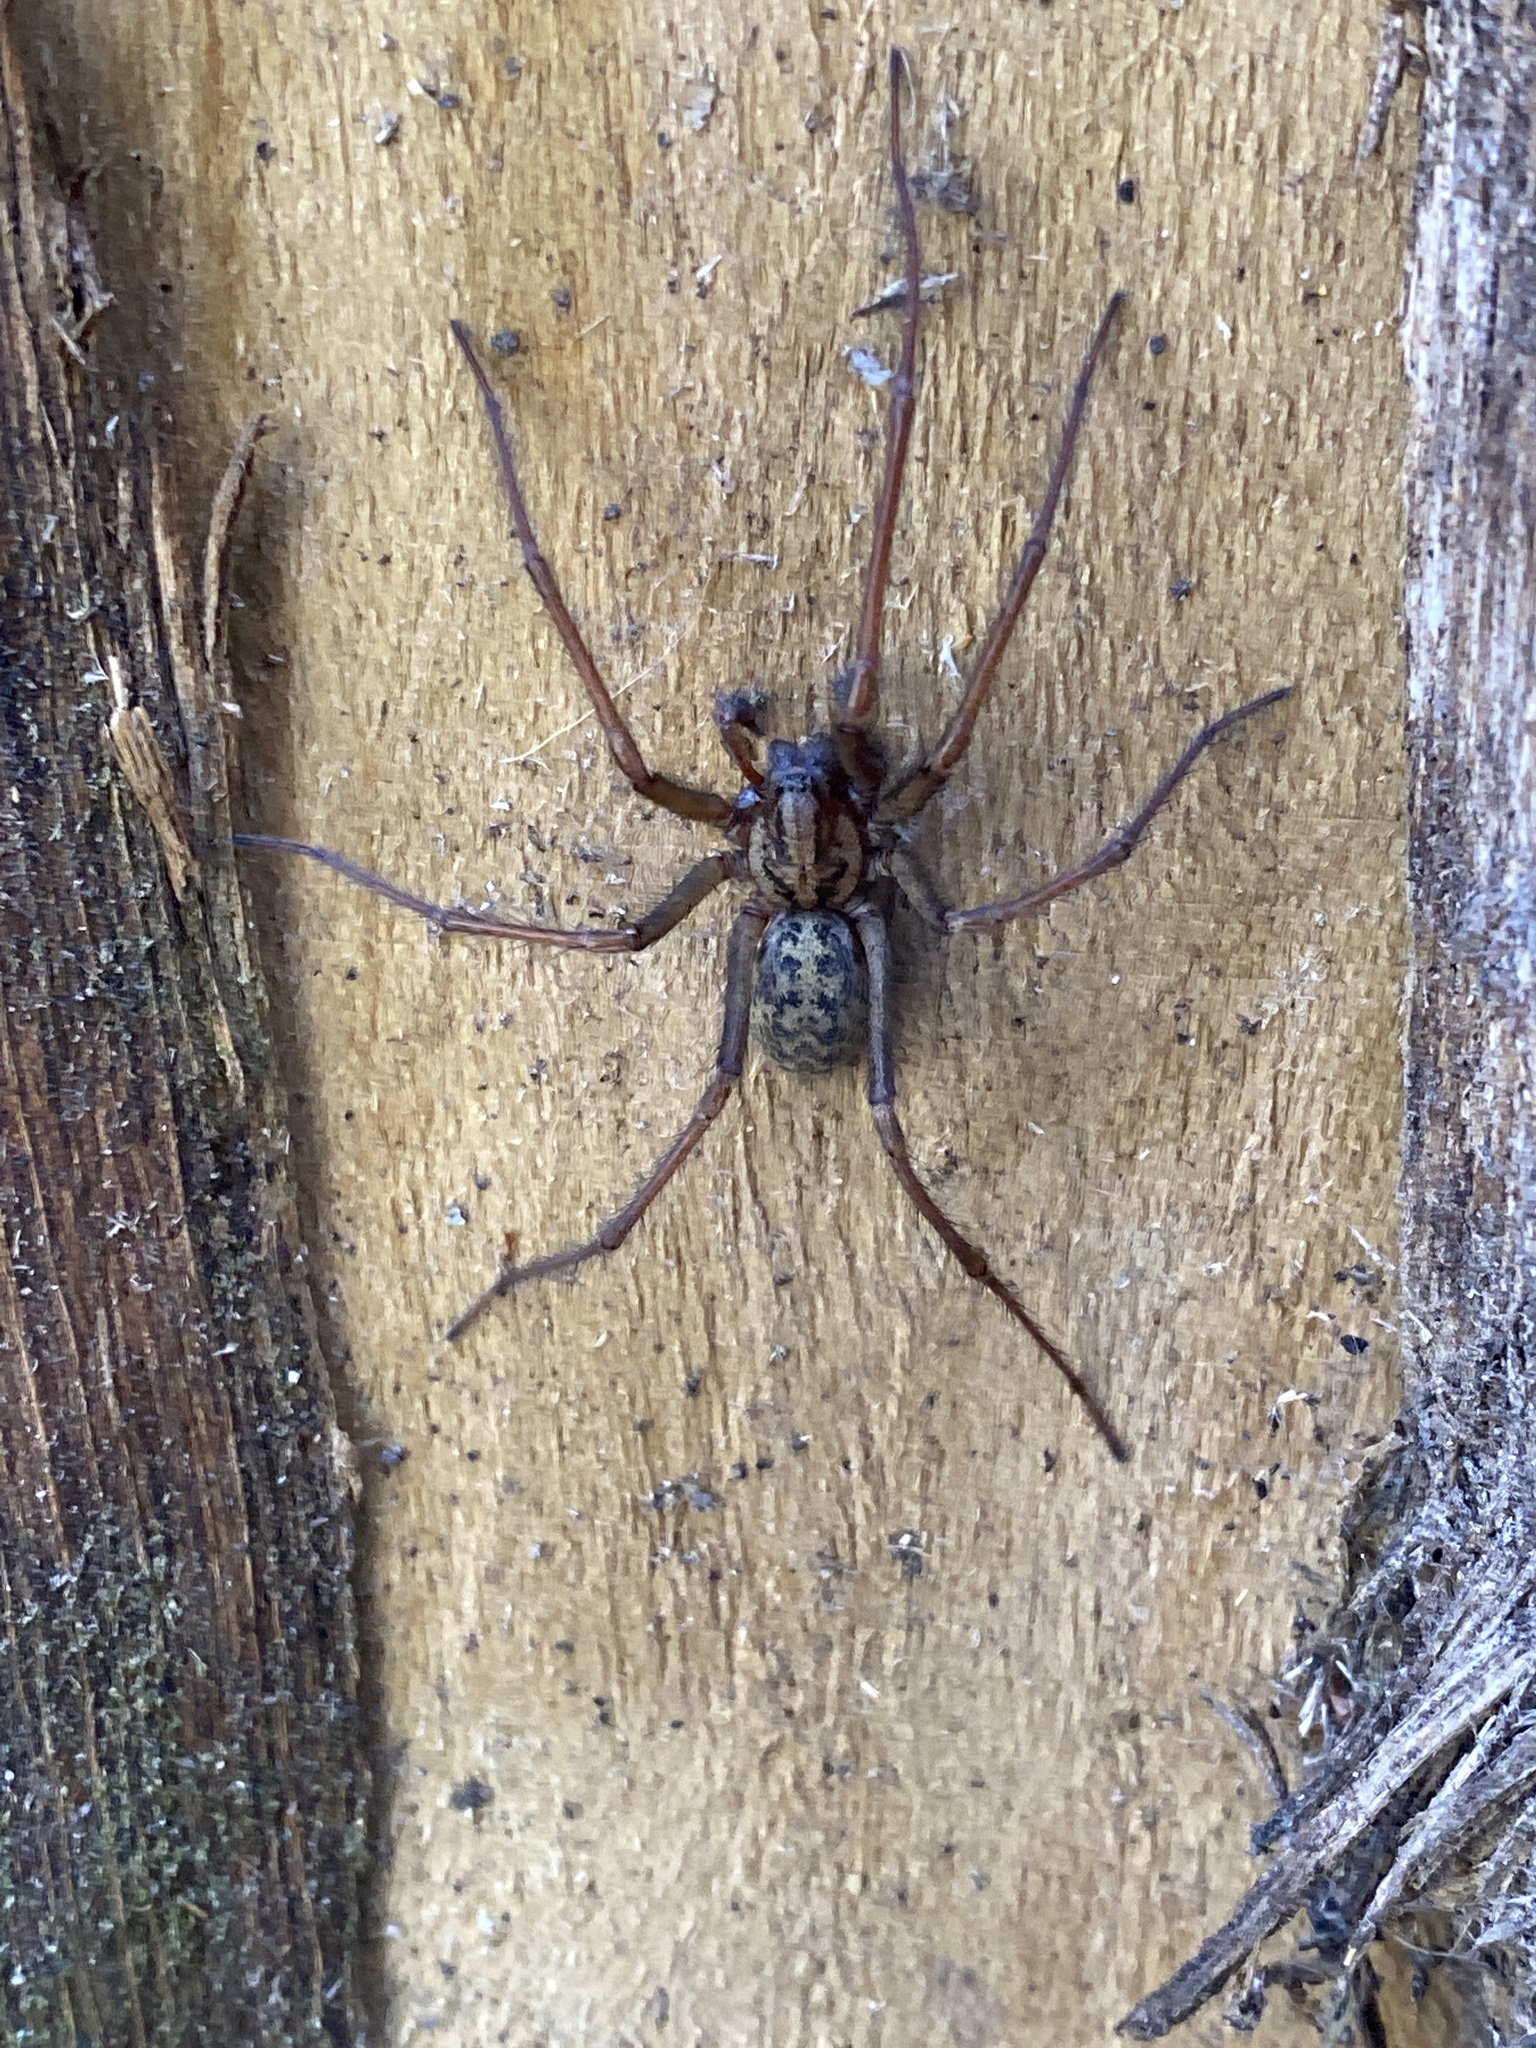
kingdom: Animalia
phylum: Arthropoda
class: Arachnida
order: Araneae
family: Agelenidae
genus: Eratigena
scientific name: Eratigena duellica
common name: Giant house spider
